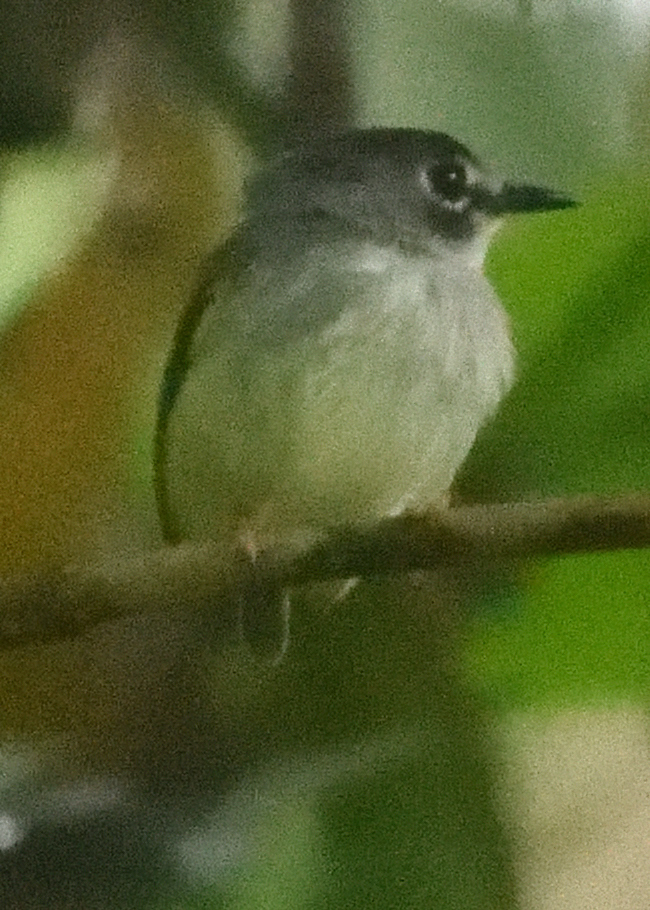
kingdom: Animalia
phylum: Chordata
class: Aves
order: Passeriformes
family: Tyrannidae
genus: Myiornis
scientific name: Myiornis atricapillus
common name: Black-capped pygmy-tyrant
